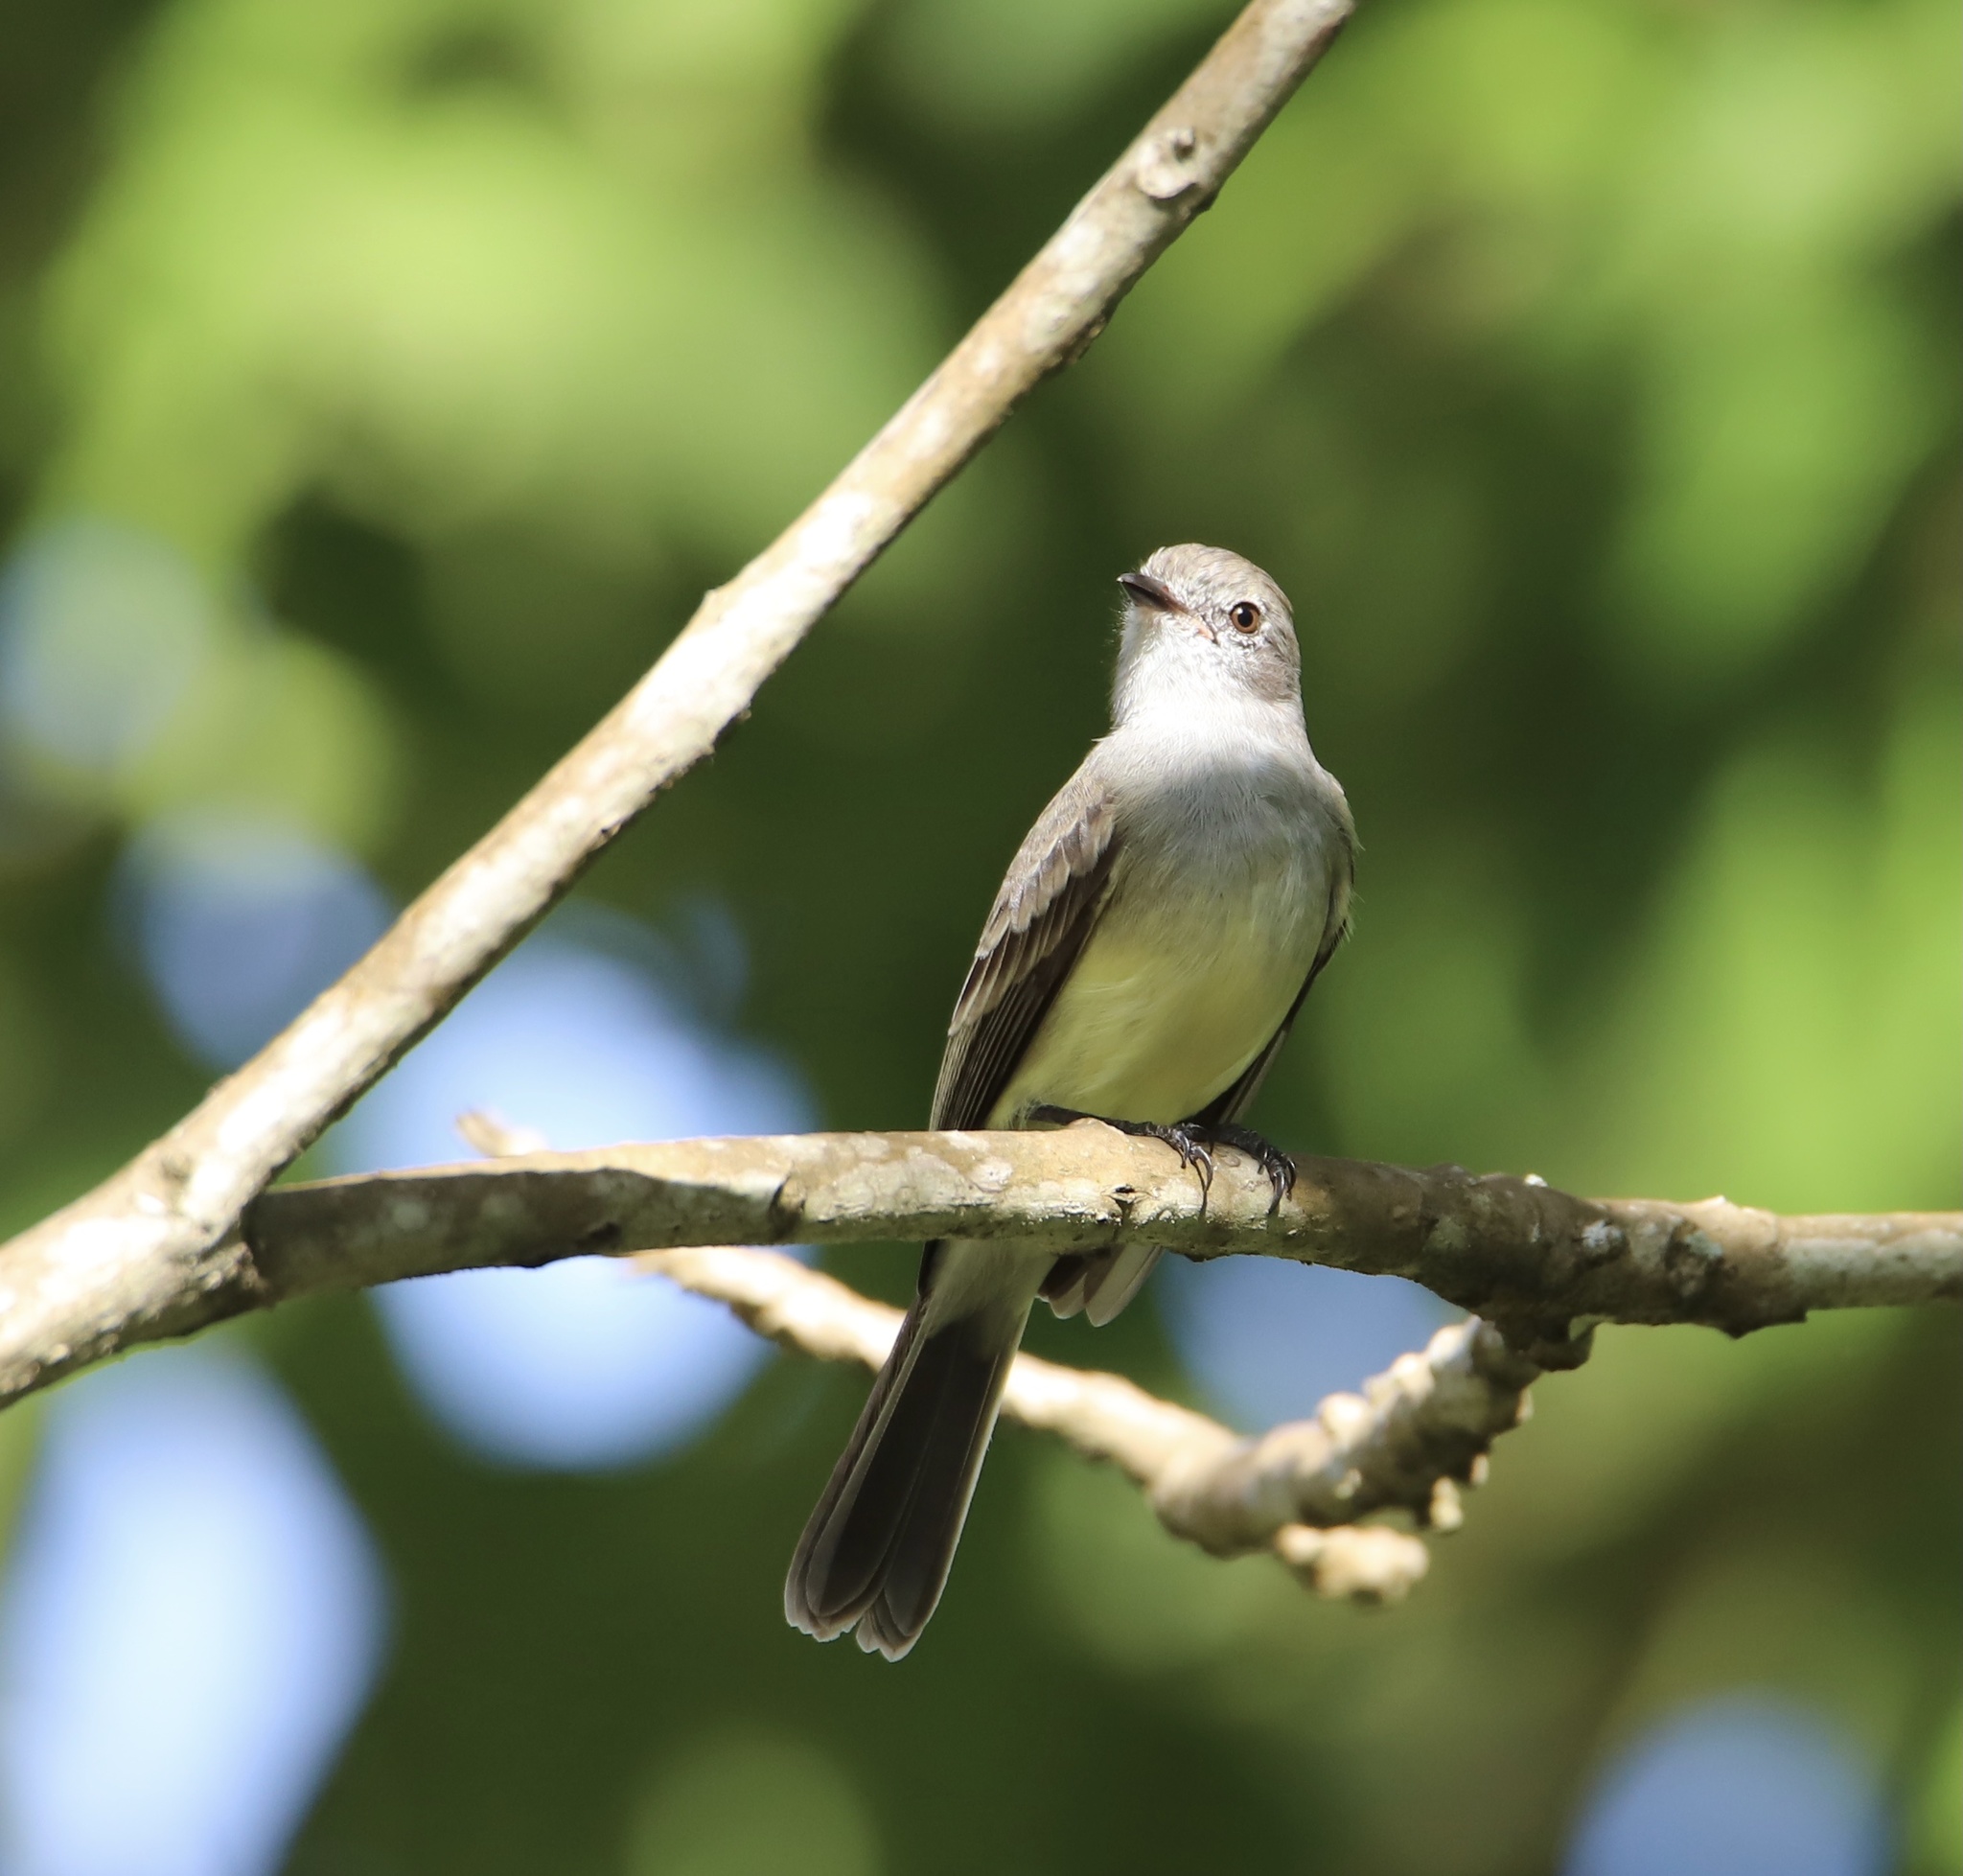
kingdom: Animalia
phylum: Chordata
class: Aves
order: Passeriformes
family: Tyrannidae
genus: Sublegatus
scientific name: Sublegatus arenarum
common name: Northern scrub-flycatcher
